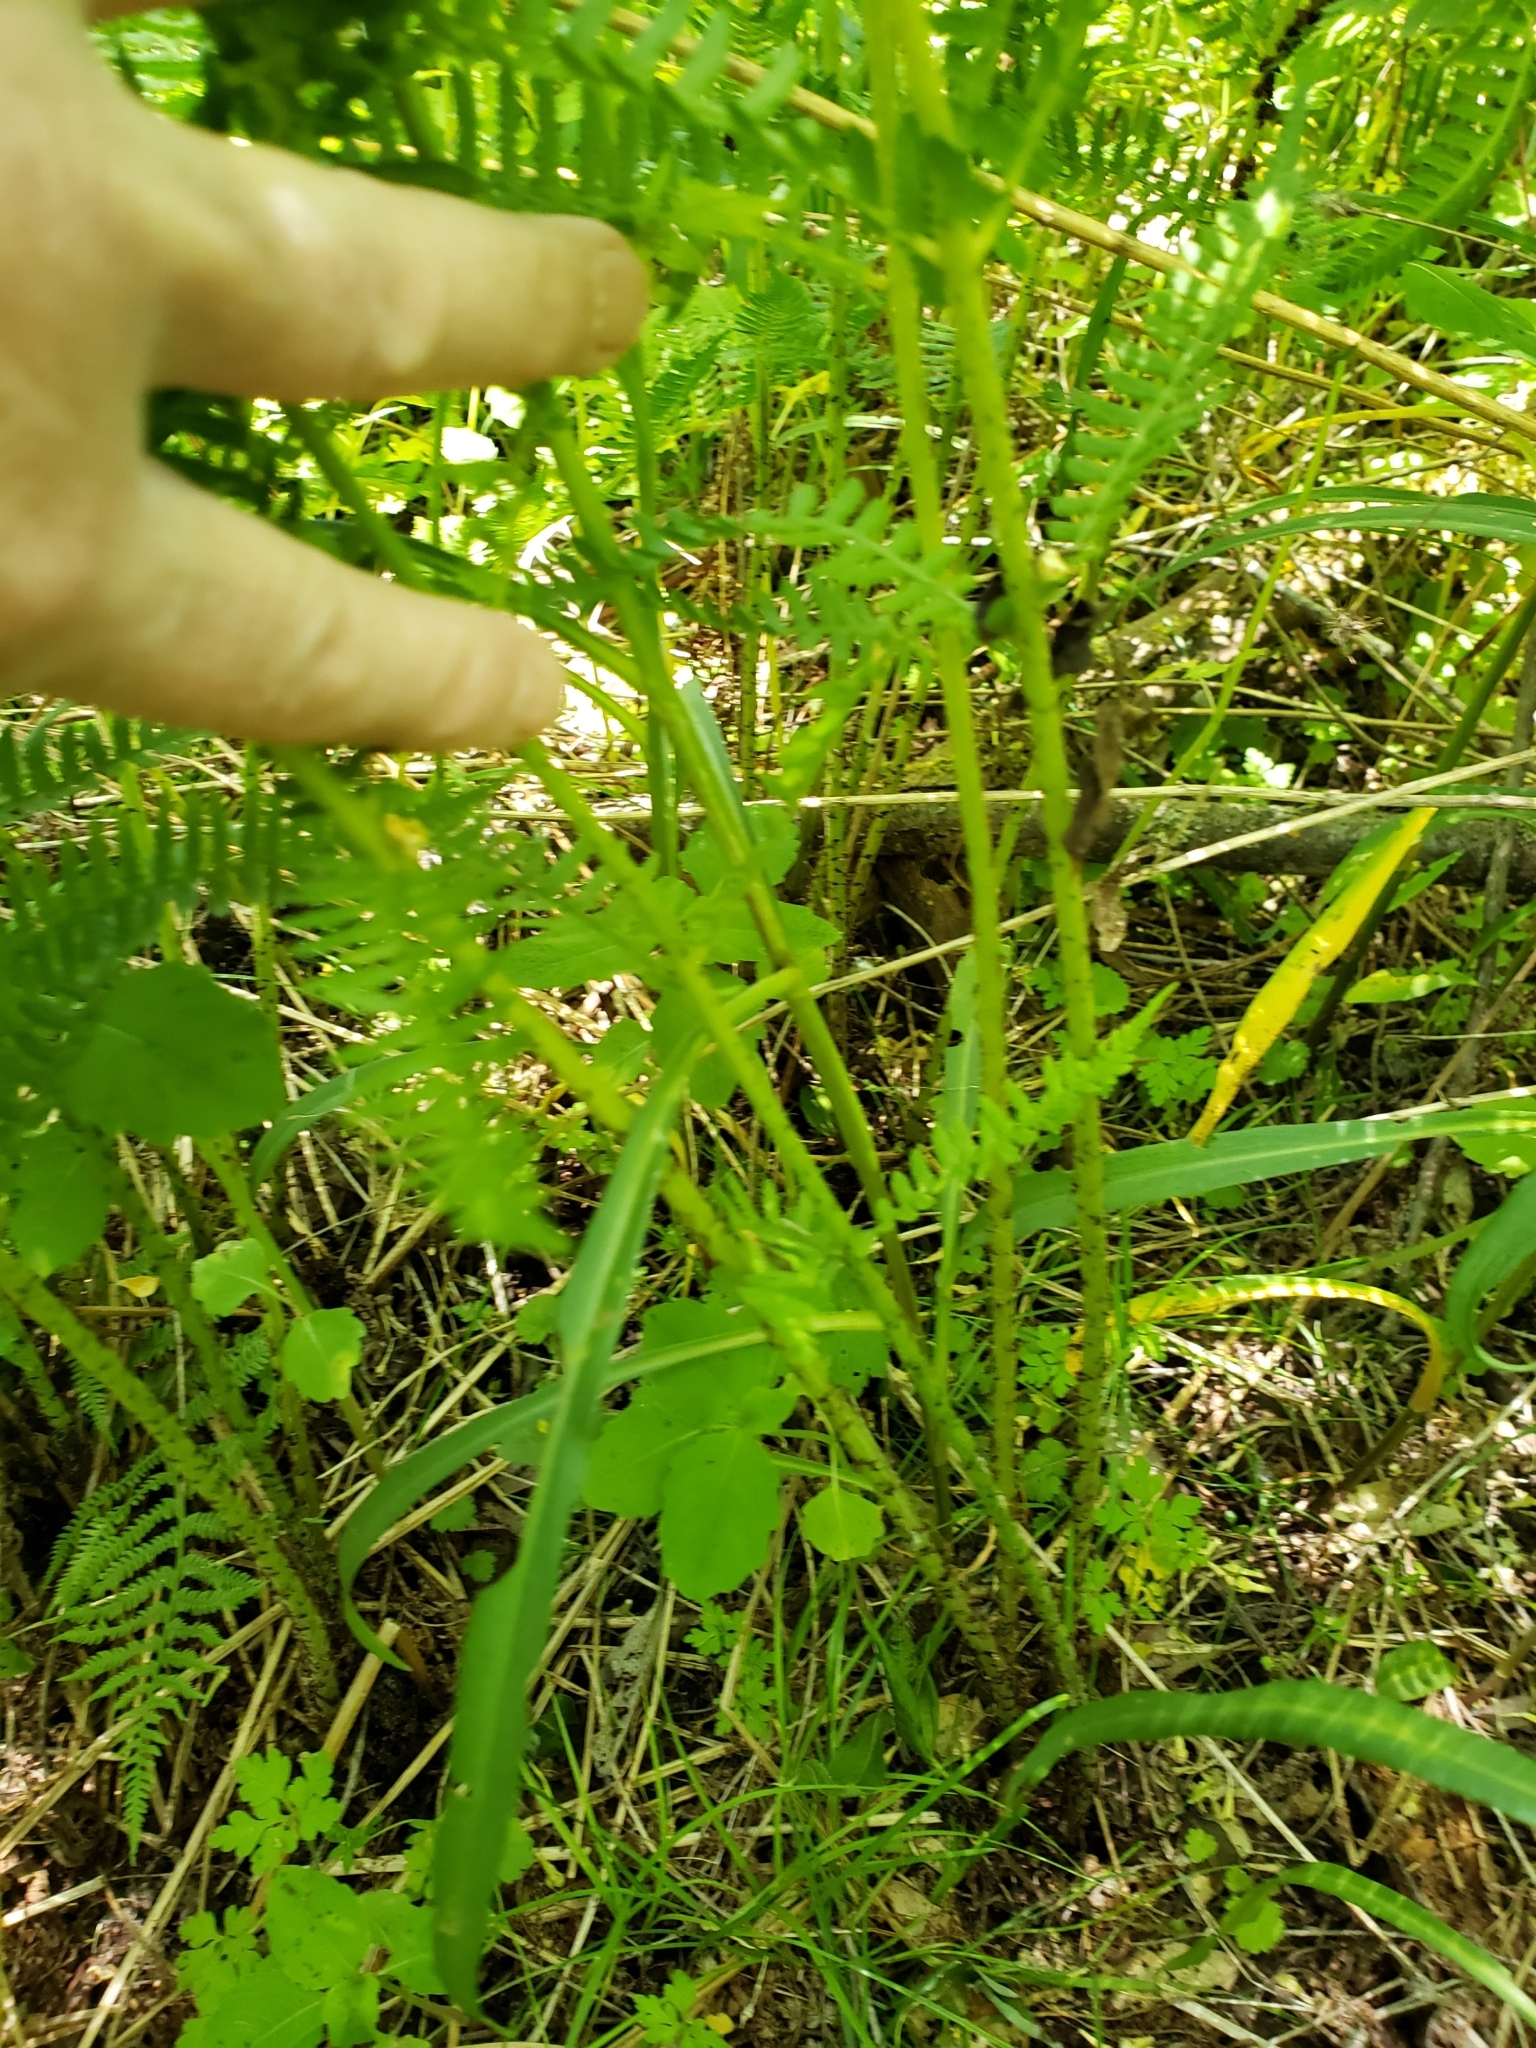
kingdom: Plantae
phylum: Tracheophyta
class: Polypodiopsida
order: Polypodiales
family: Athyriaceae
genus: Athyrium
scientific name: Athyrium angustum
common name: Northern lady fern
